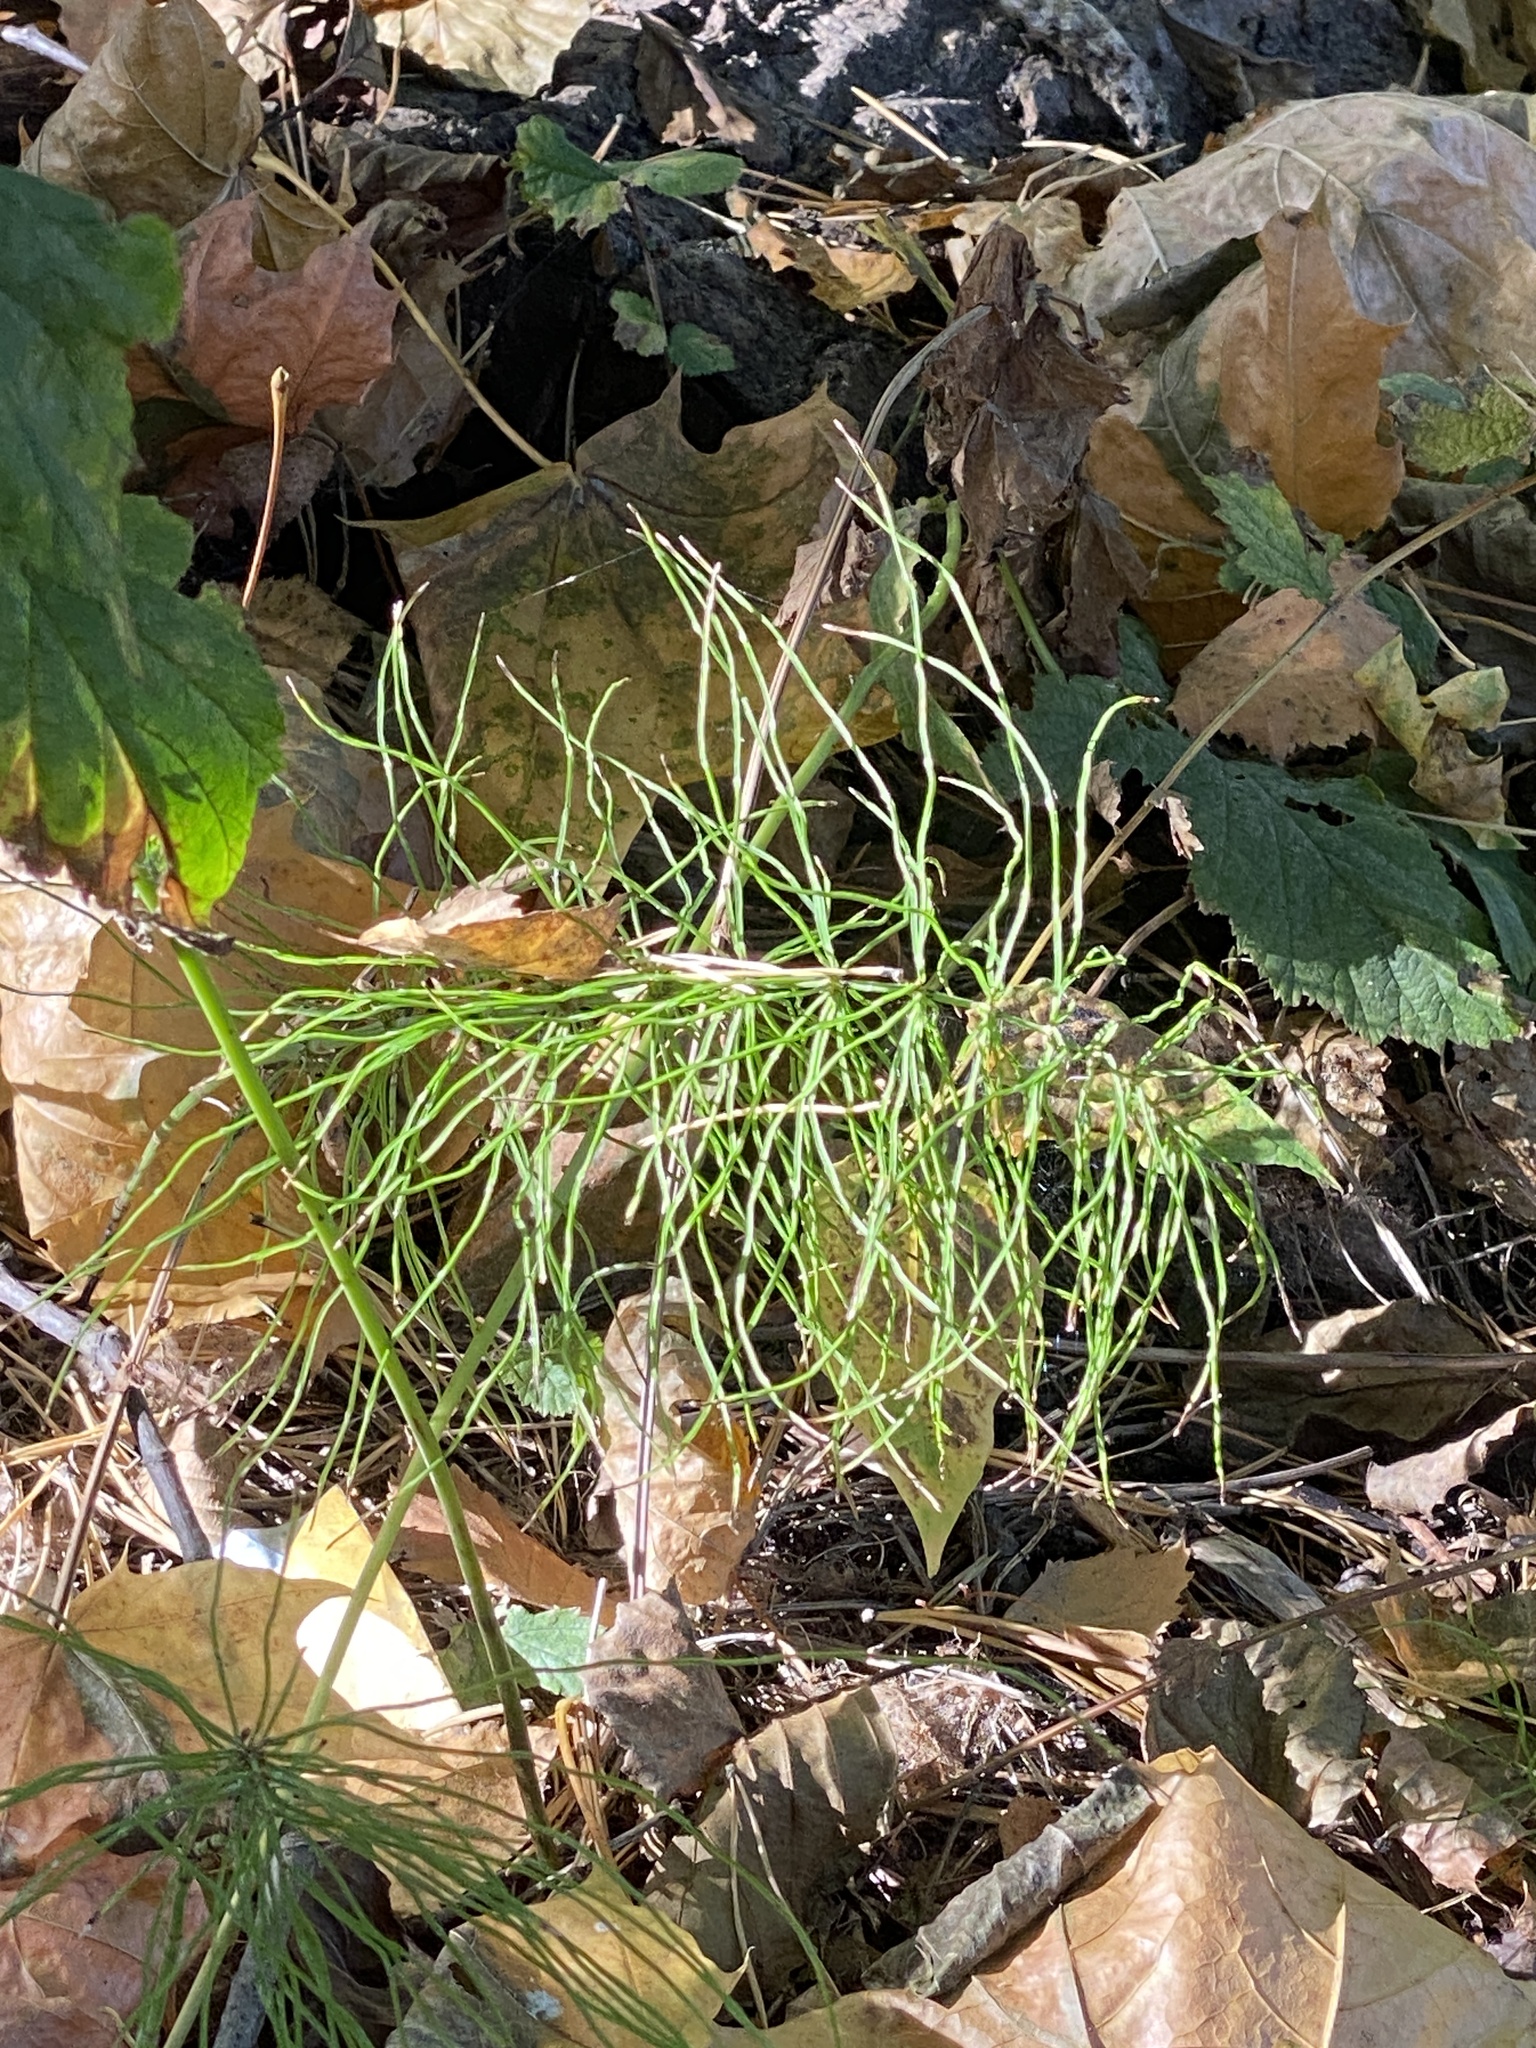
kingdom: Plantae
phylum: Tracheophyta
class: Polypodiopsida
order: Equisetales
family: Equisetaceae
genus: Equisetum
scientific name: Equisetum pratense
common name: Meadow horsetail
